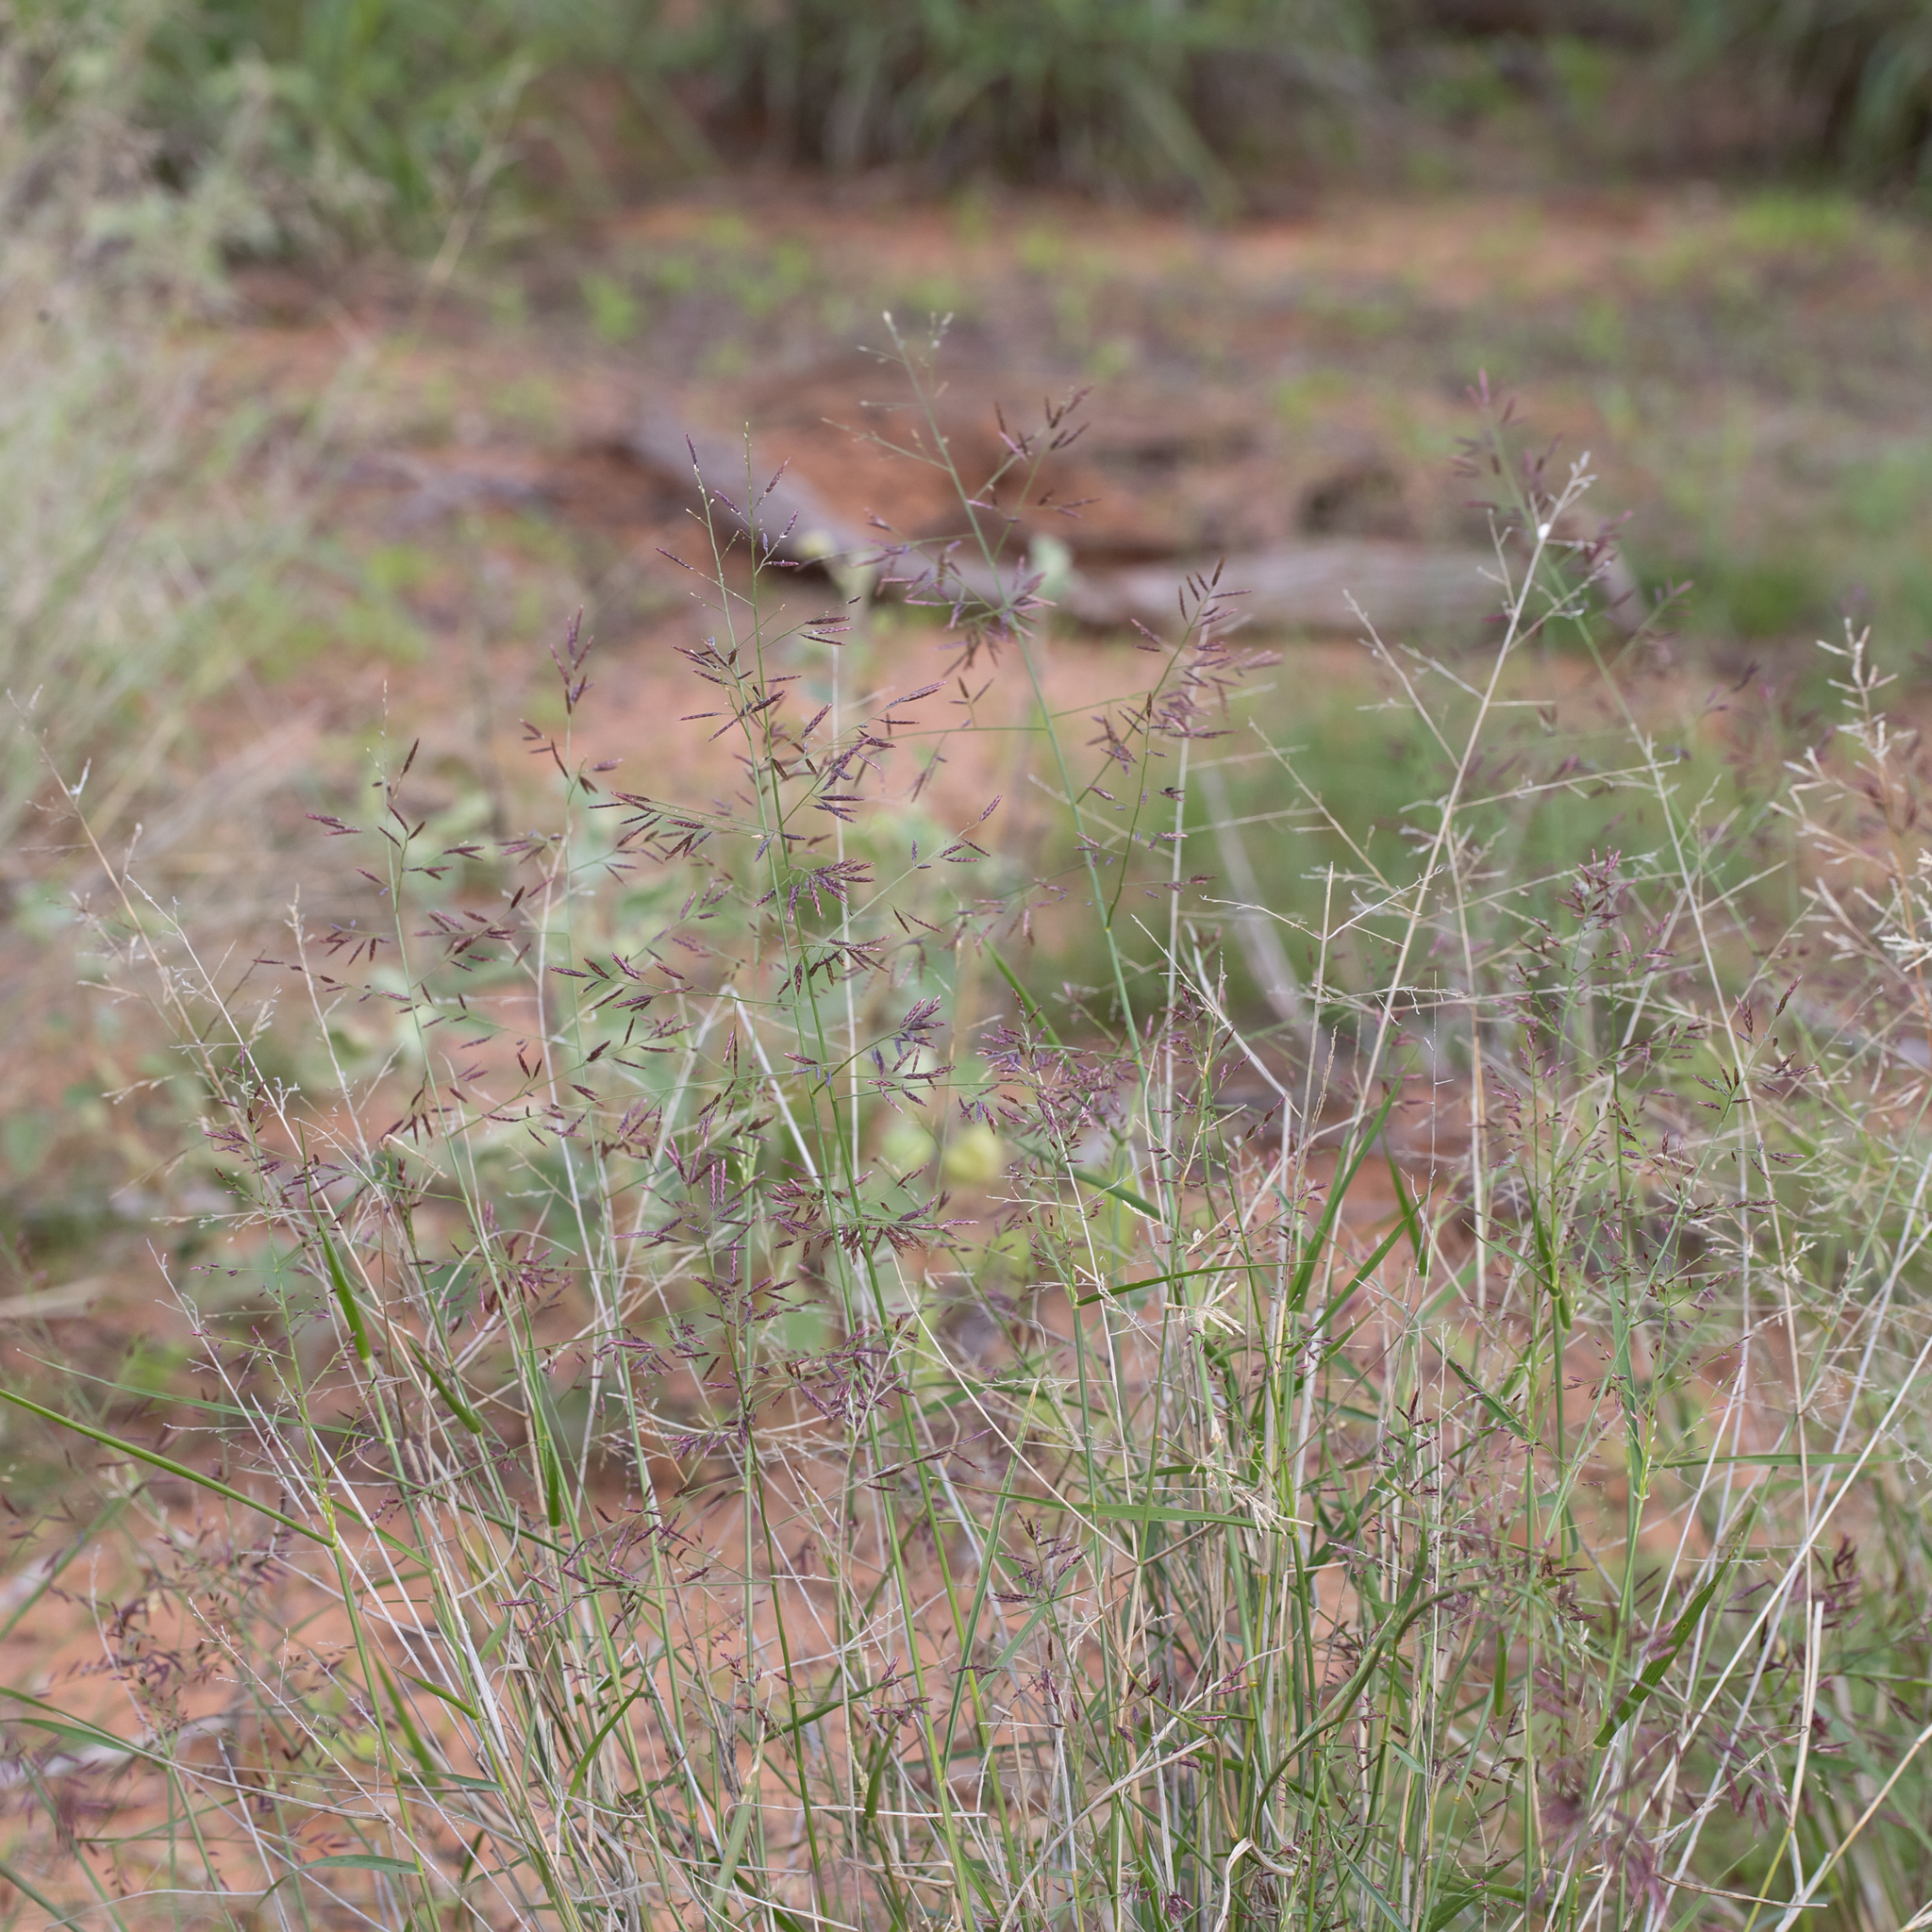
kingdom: Plantae
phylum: Tracheophyta
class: Liliopsida
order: Poales
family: Poaceae
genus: Eragrostis
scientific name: Eragrostis lacunaria
